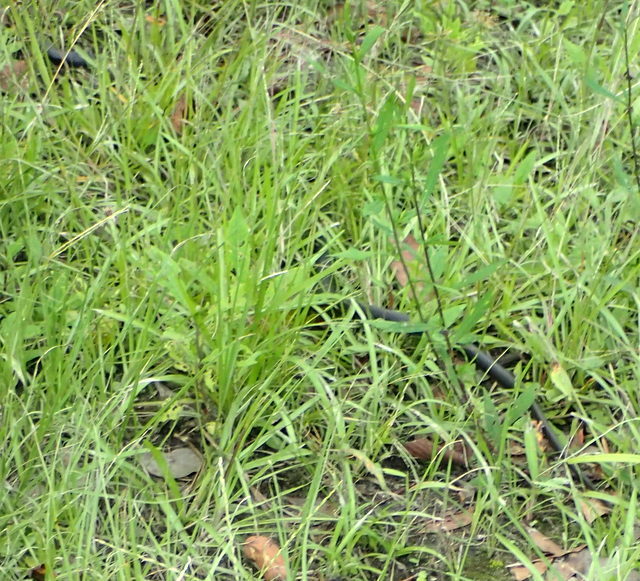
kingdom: Animalia
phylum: Chordata
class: Squamata
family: Colubridae
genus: Coluber
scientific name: Coluber constrictor
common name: Eastern racer
